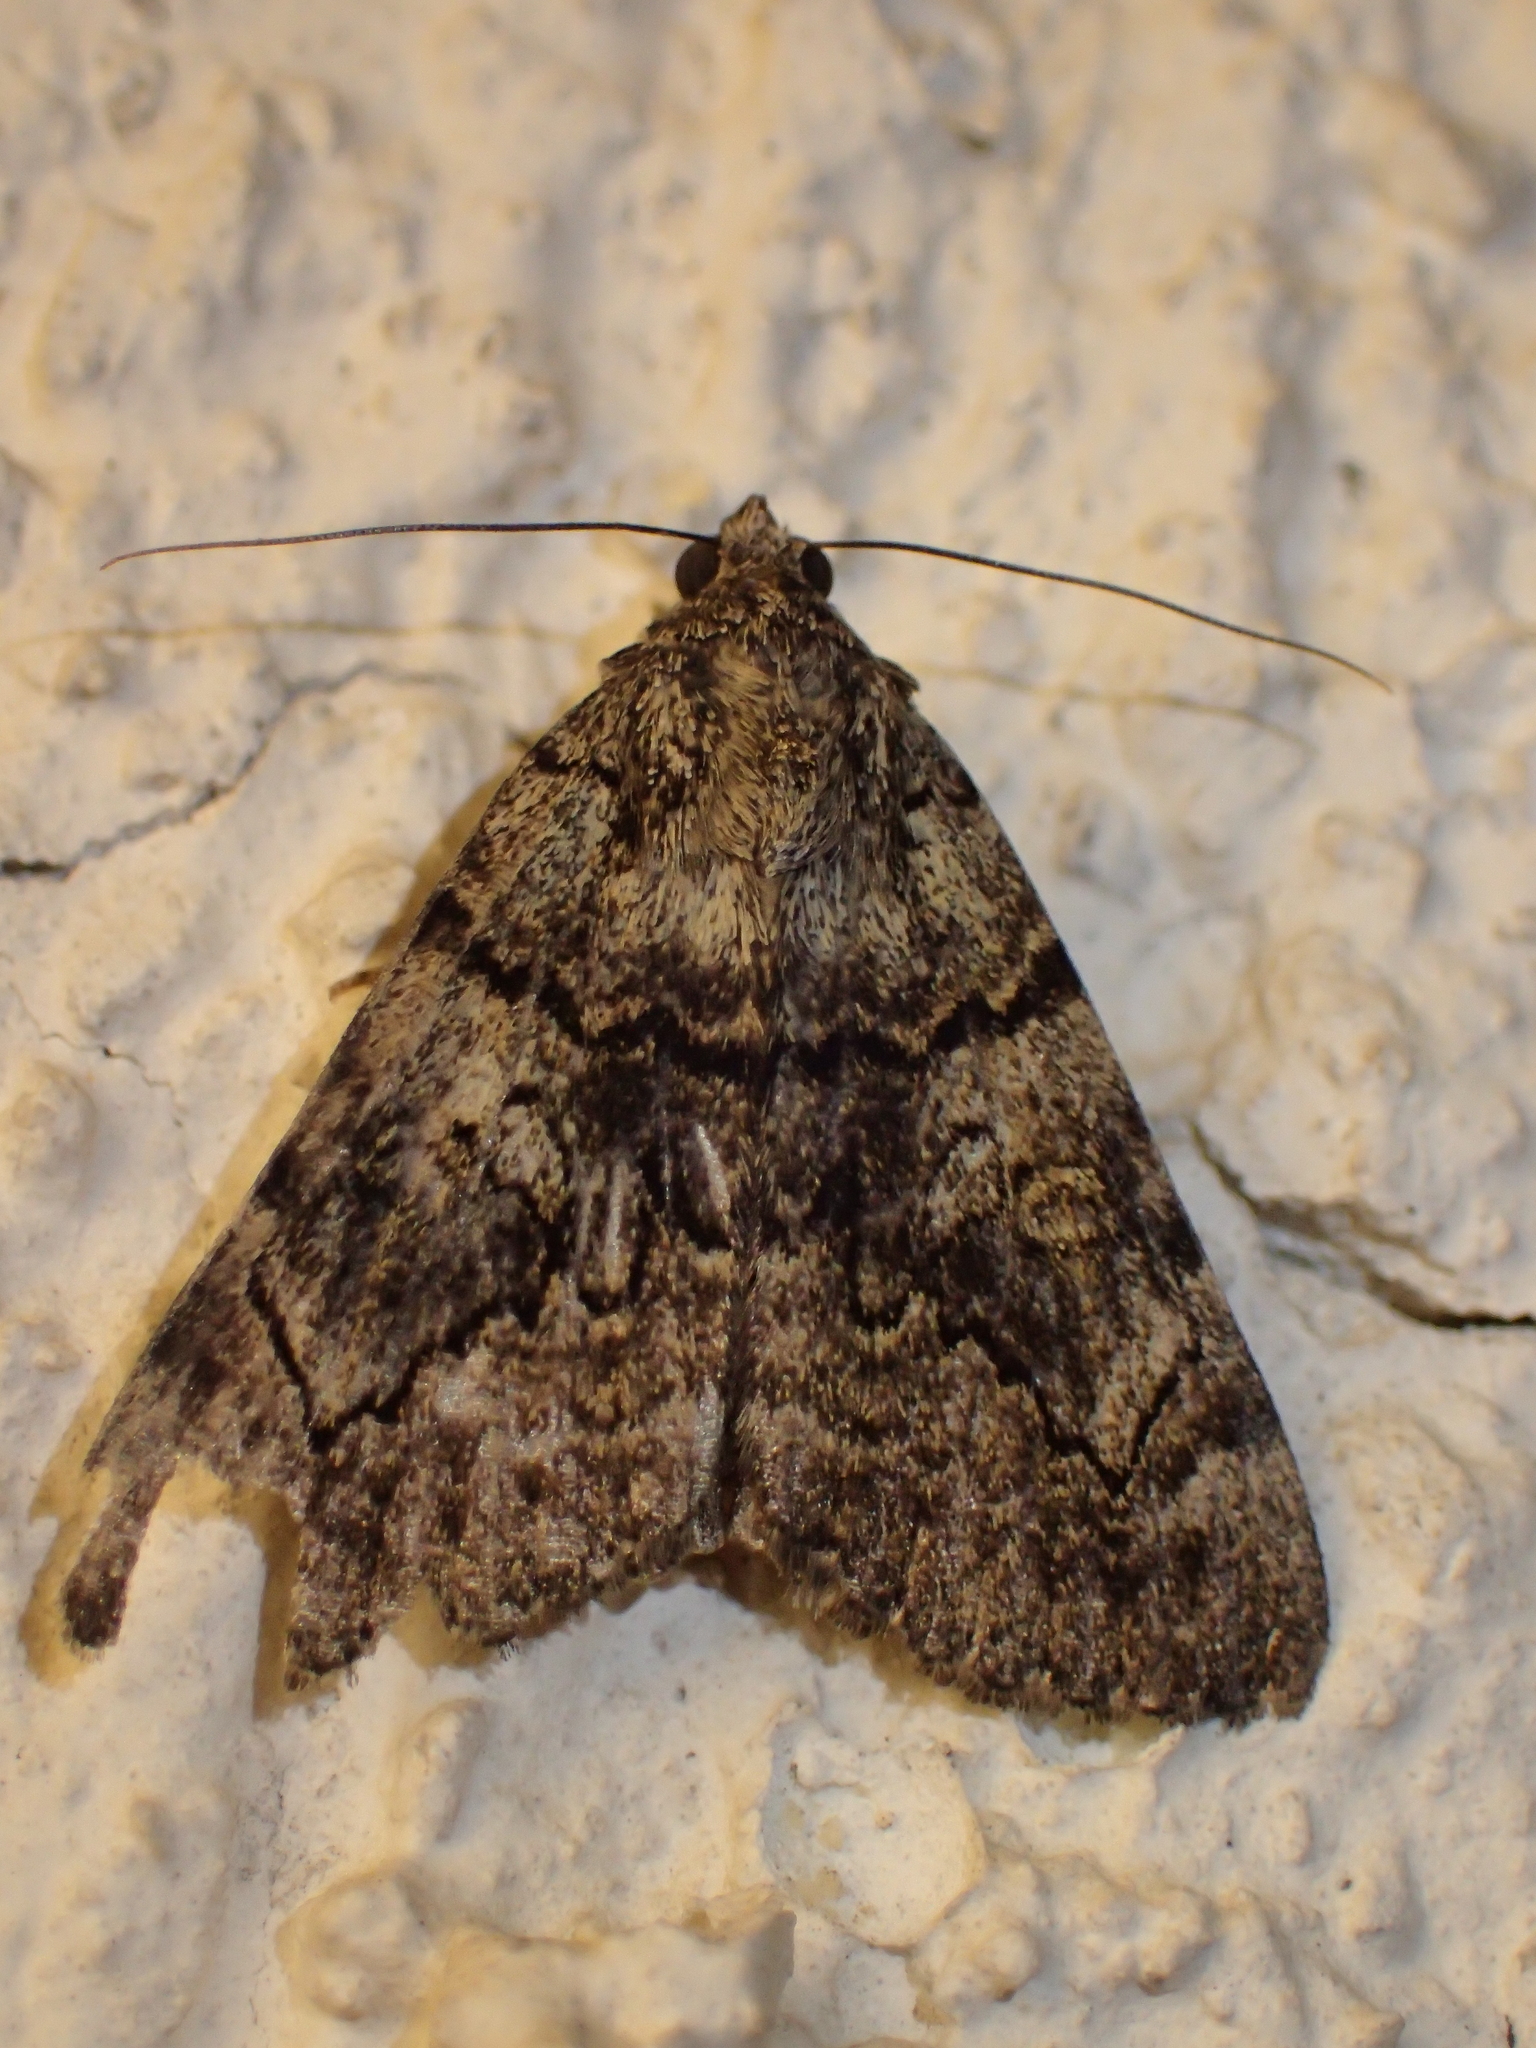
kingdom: Animalia
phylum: Arthropoda
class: Insecta
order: Lepidoptera
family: Erebidae
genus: Catocala
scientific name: Catocala nymphagoga
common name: Oak yellow underwing
